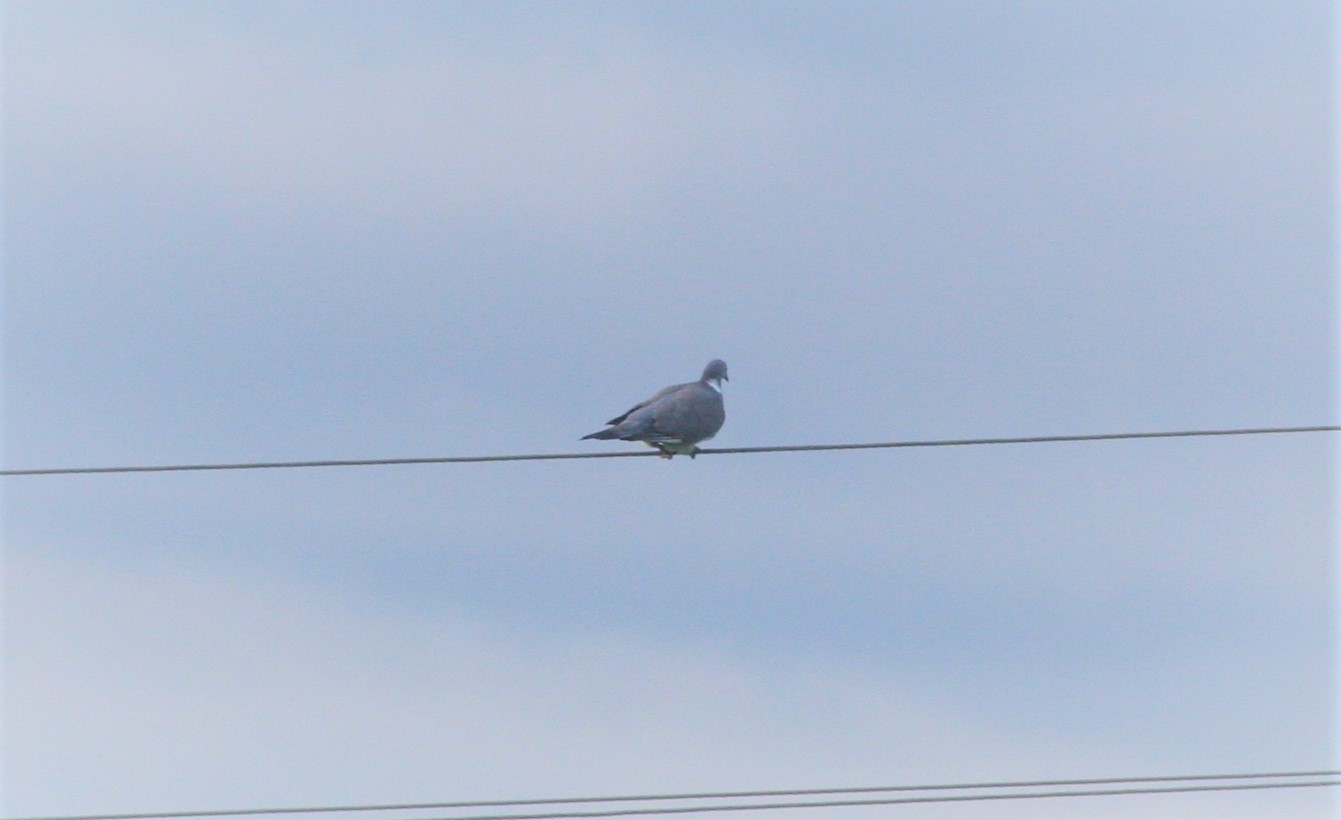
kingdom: Animalia
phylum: Chordata
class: Aves
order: Columbiformes
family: Columbidae
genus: Columba
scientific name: Columba palumbus
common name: Common wood pigeon
